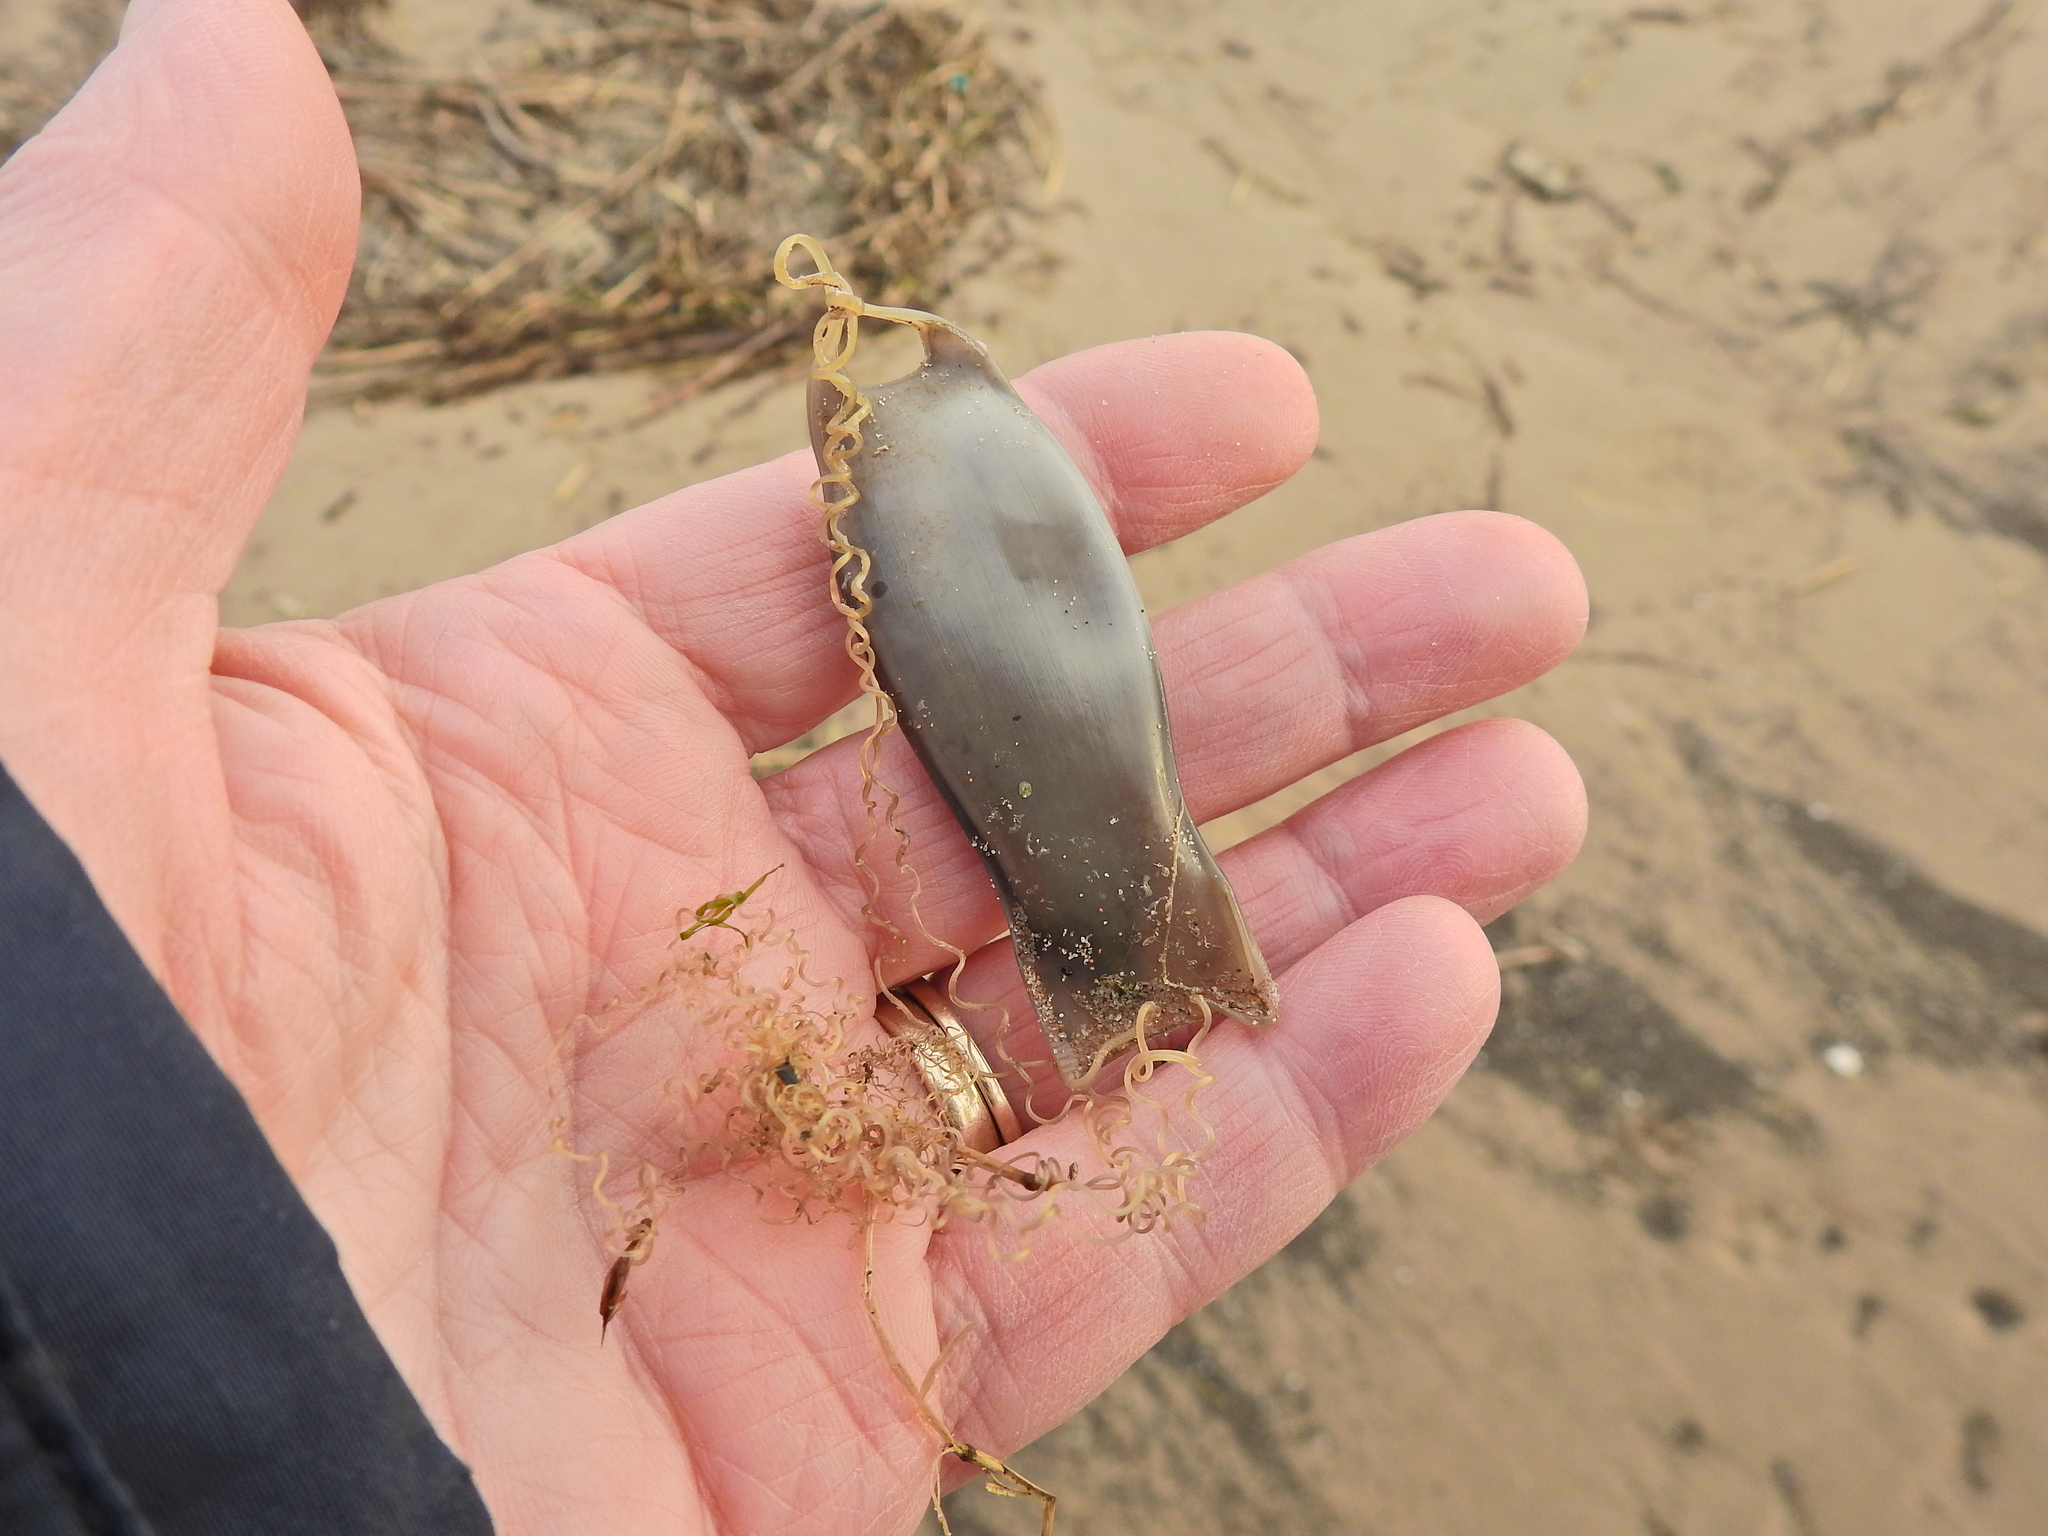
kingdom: Animalia
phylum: Chordata
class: Elasmobranchii
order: Carcharhiniformes
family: Scyliorhinidae
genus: Scyliorhinus
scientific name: Scyliorhinus canicula
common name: Lesser spotted dogfish
